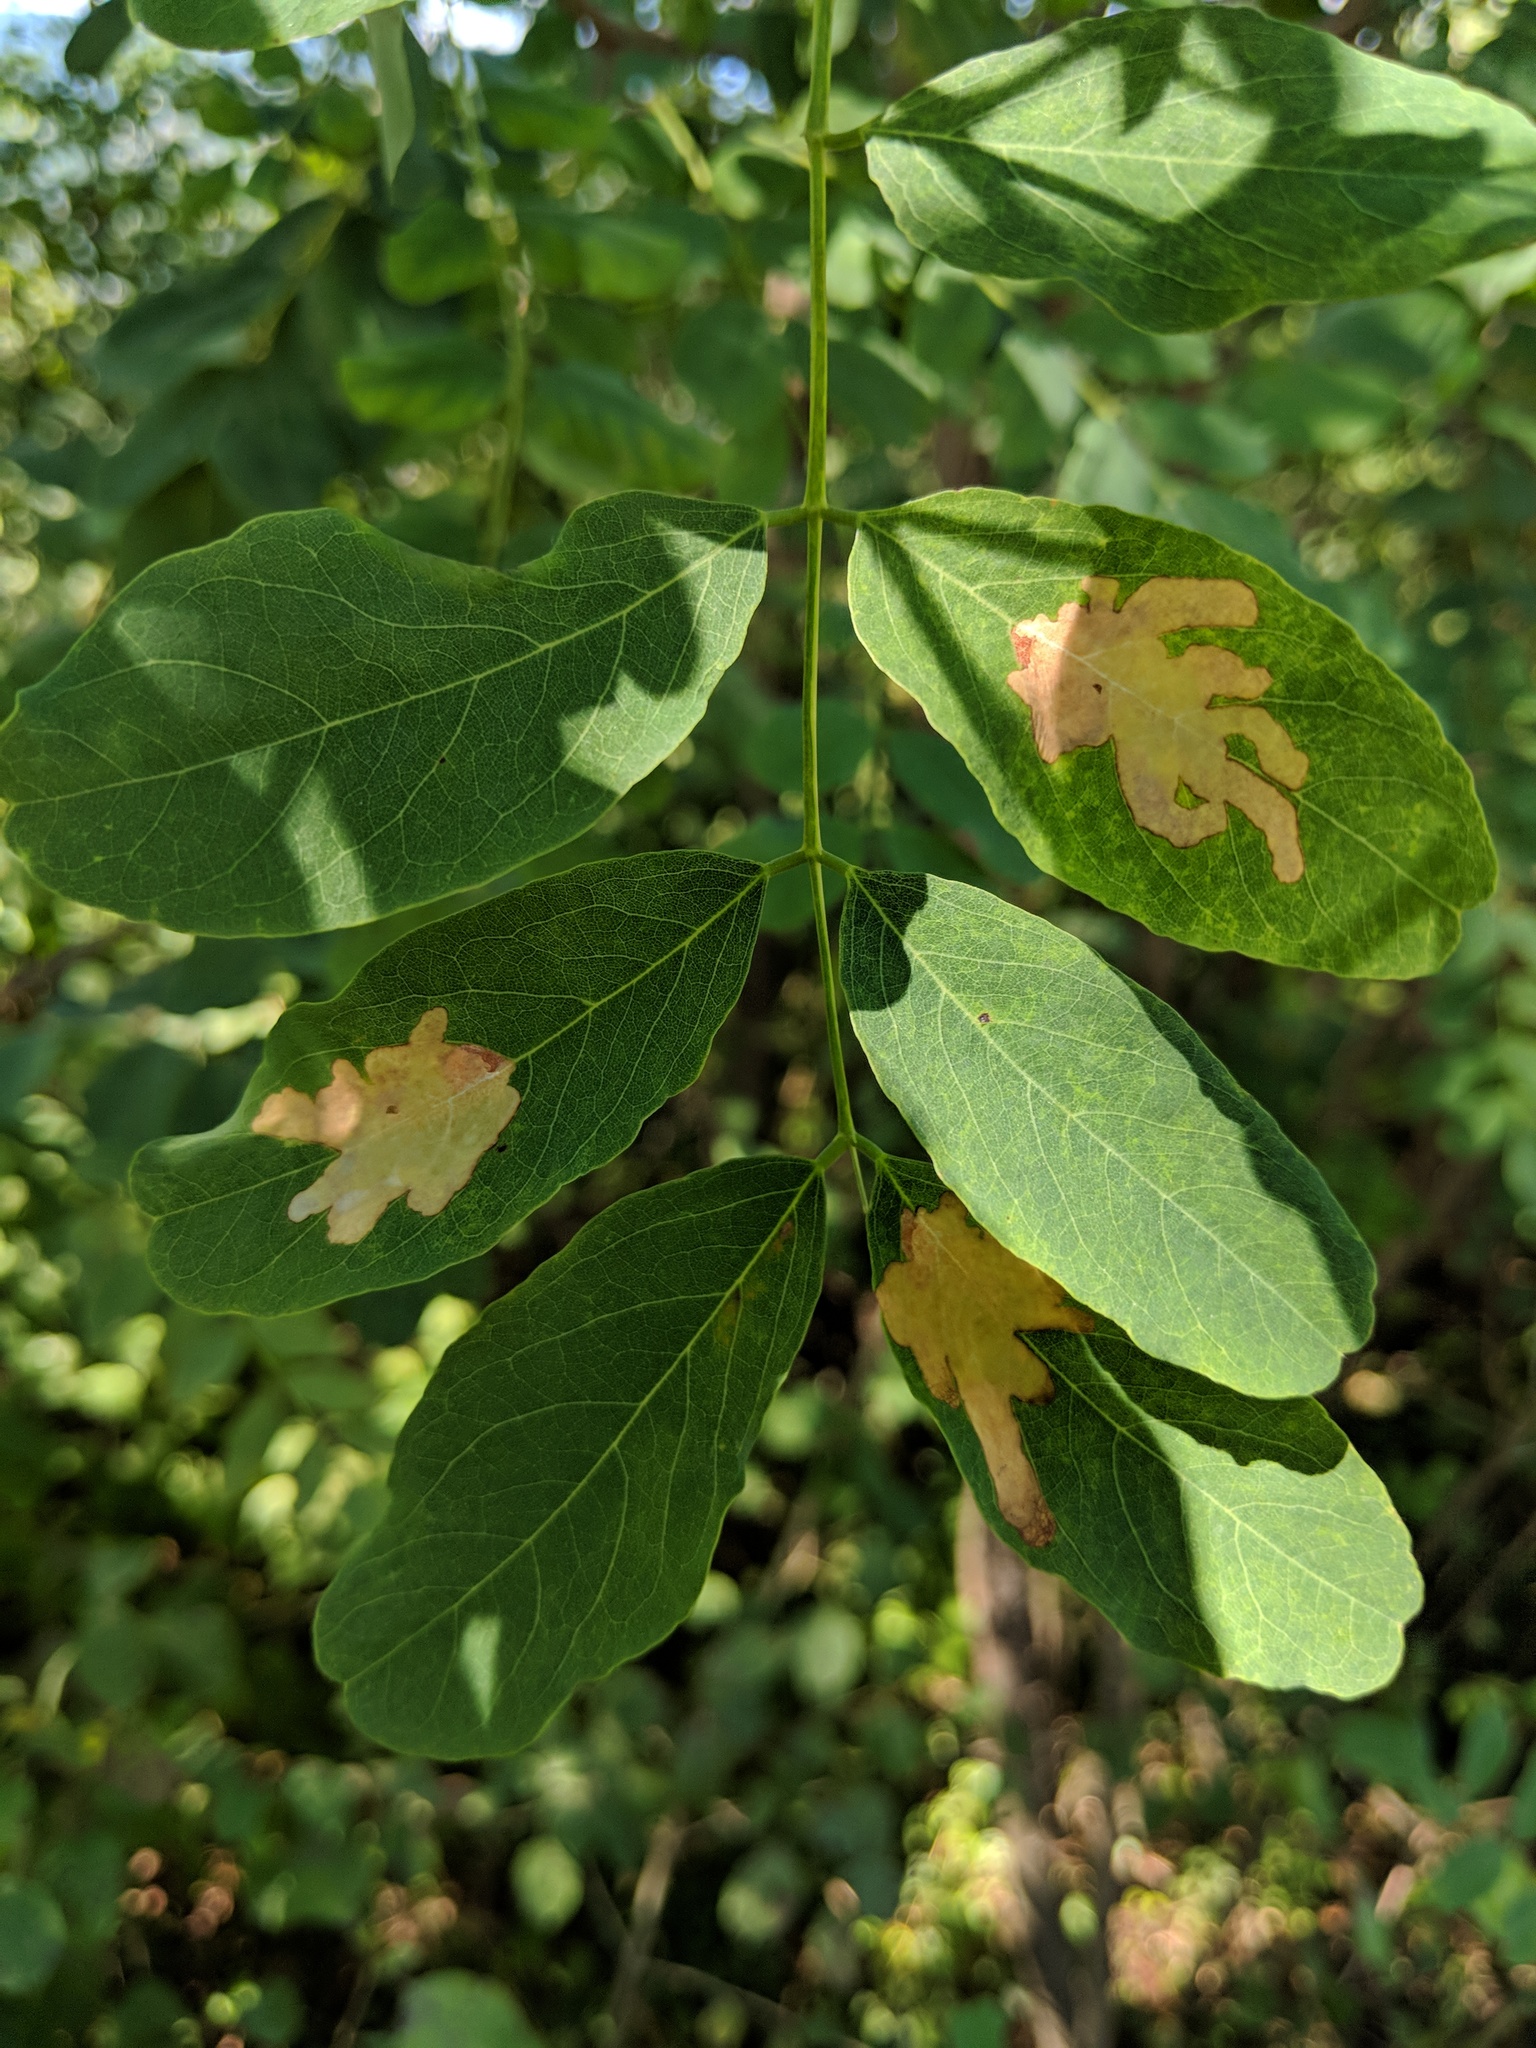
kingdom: Animalia
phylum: Arthropoda
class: Insecta
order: Lepidoptera
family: Gracillariidae
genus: Parectopa
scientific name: Parectopa robiniella
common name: Locust digitate leafminer
